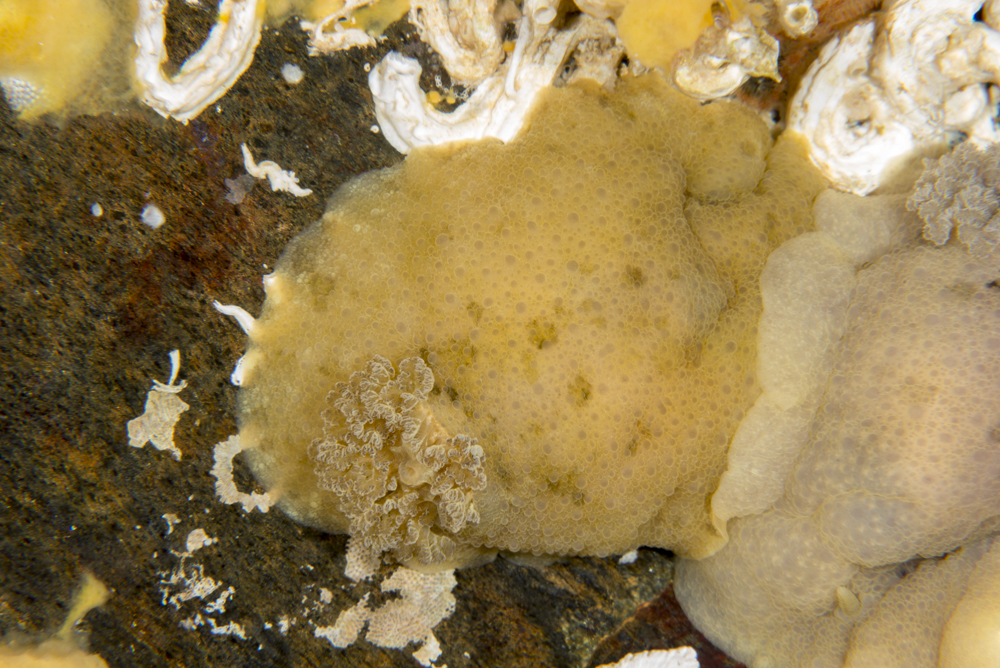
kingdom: Animalia
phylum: Mollusca
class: Gastropoda
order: Nudibranchia
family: Dorididae
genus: Doris
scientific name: Doris pseudoargus
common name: Sea lemon
